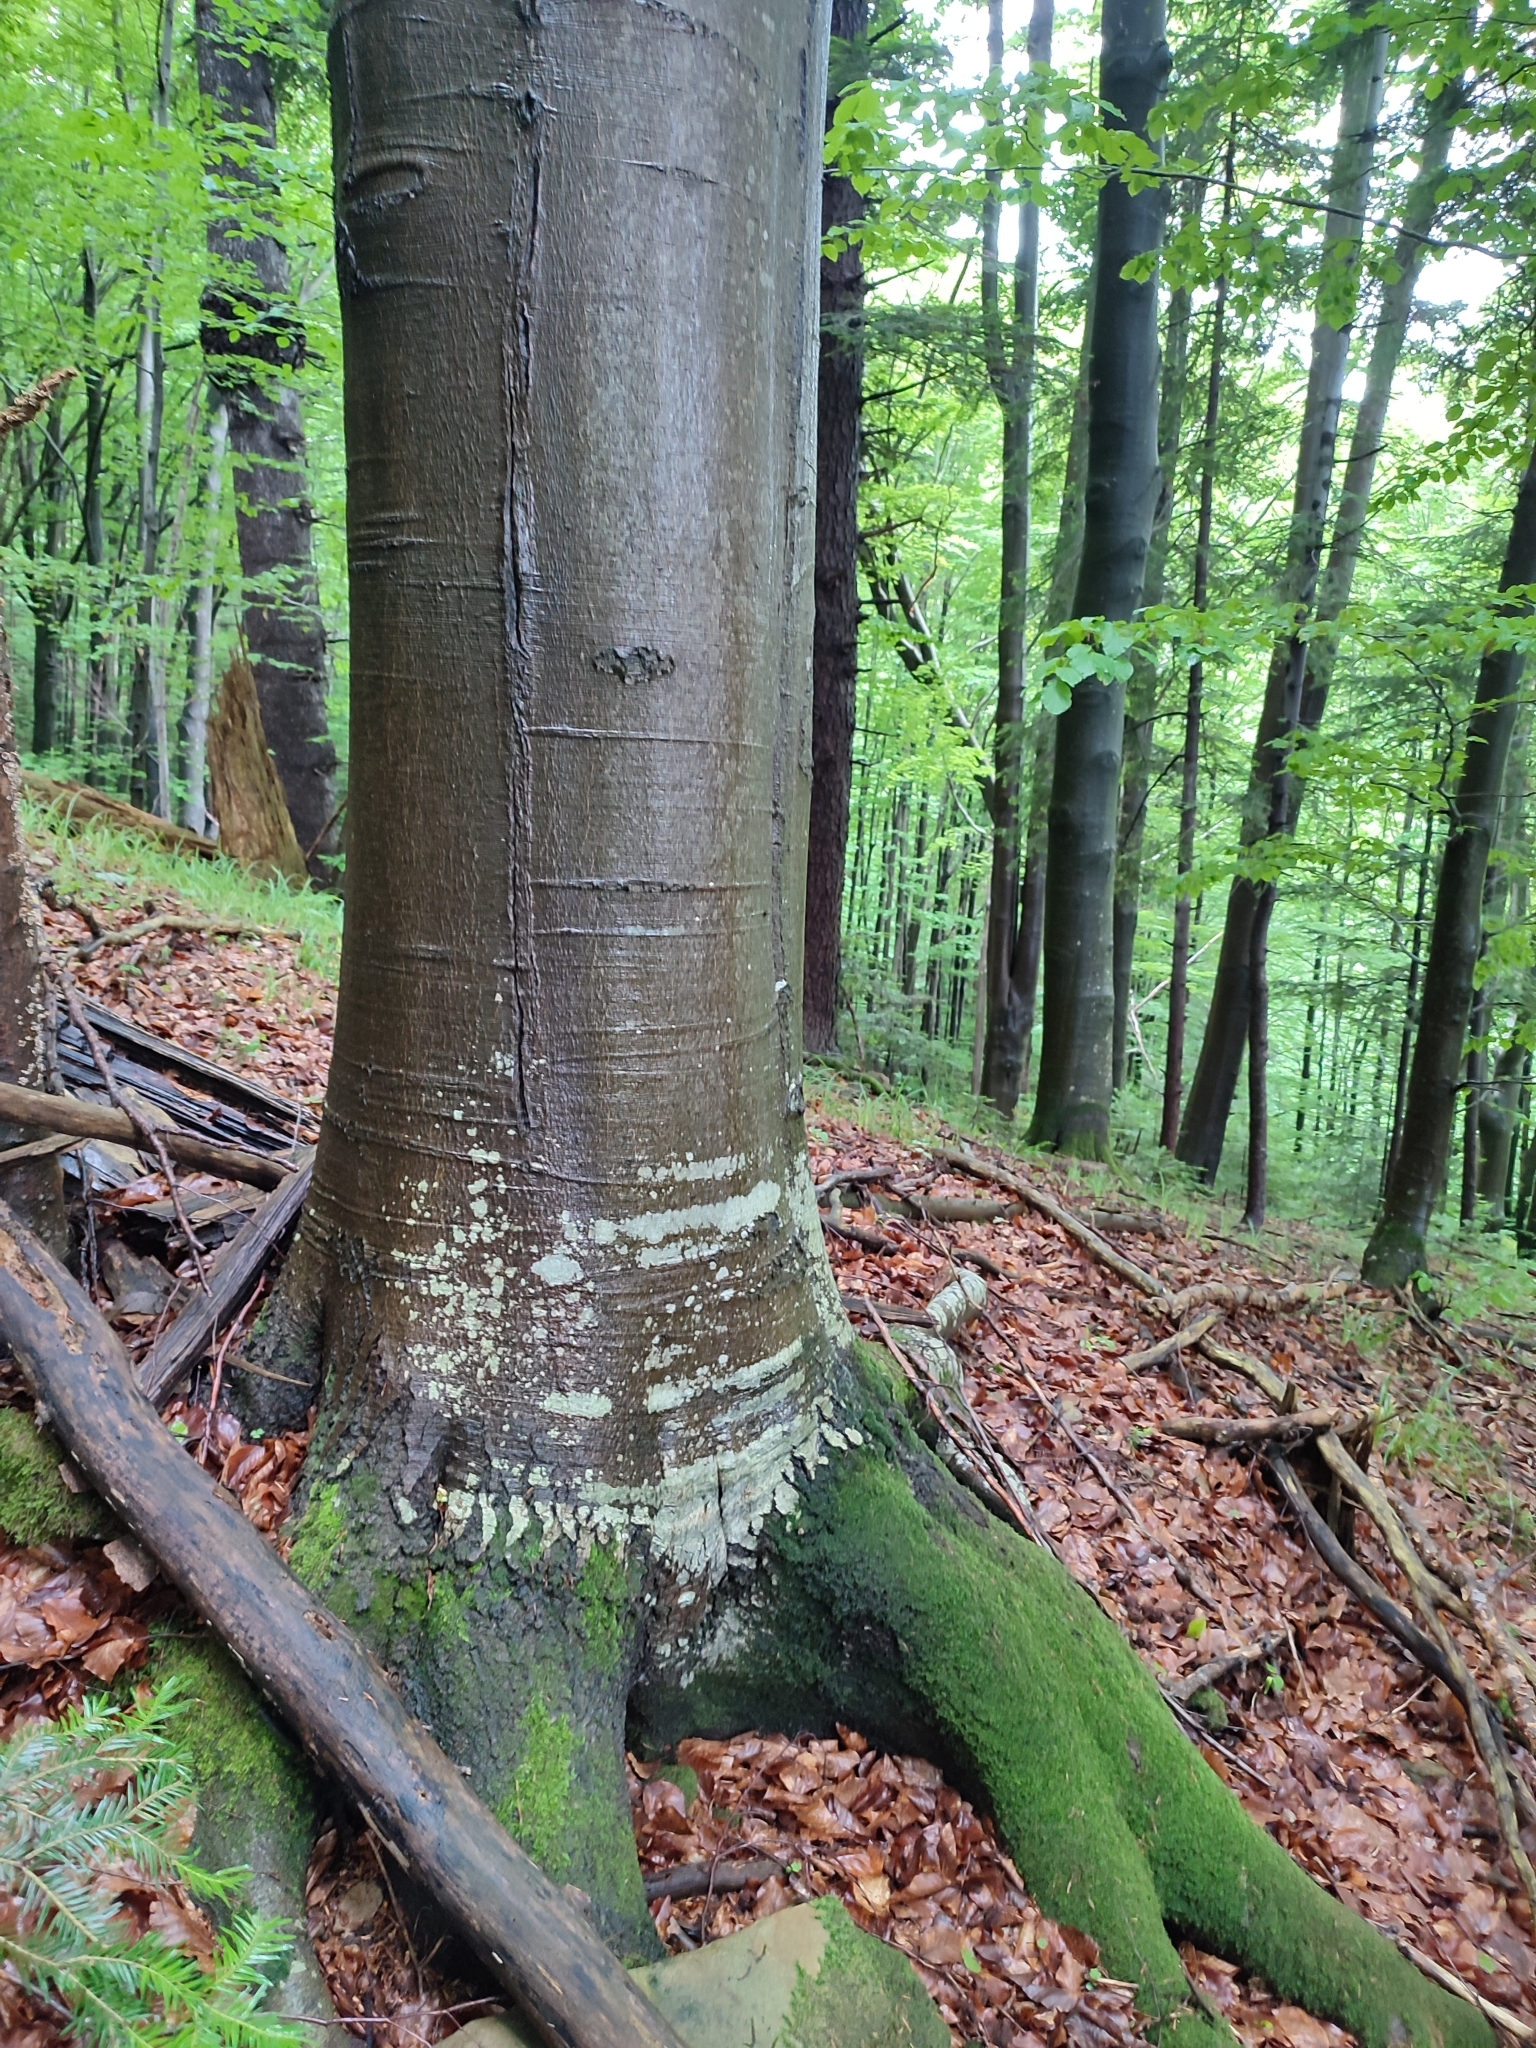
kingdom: Plantae
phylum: Tracheophyta
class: Magnoliopsida
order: Fagales
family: Fagaceae
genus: Fagus
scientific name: Fagus sylvatica
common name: Beech
